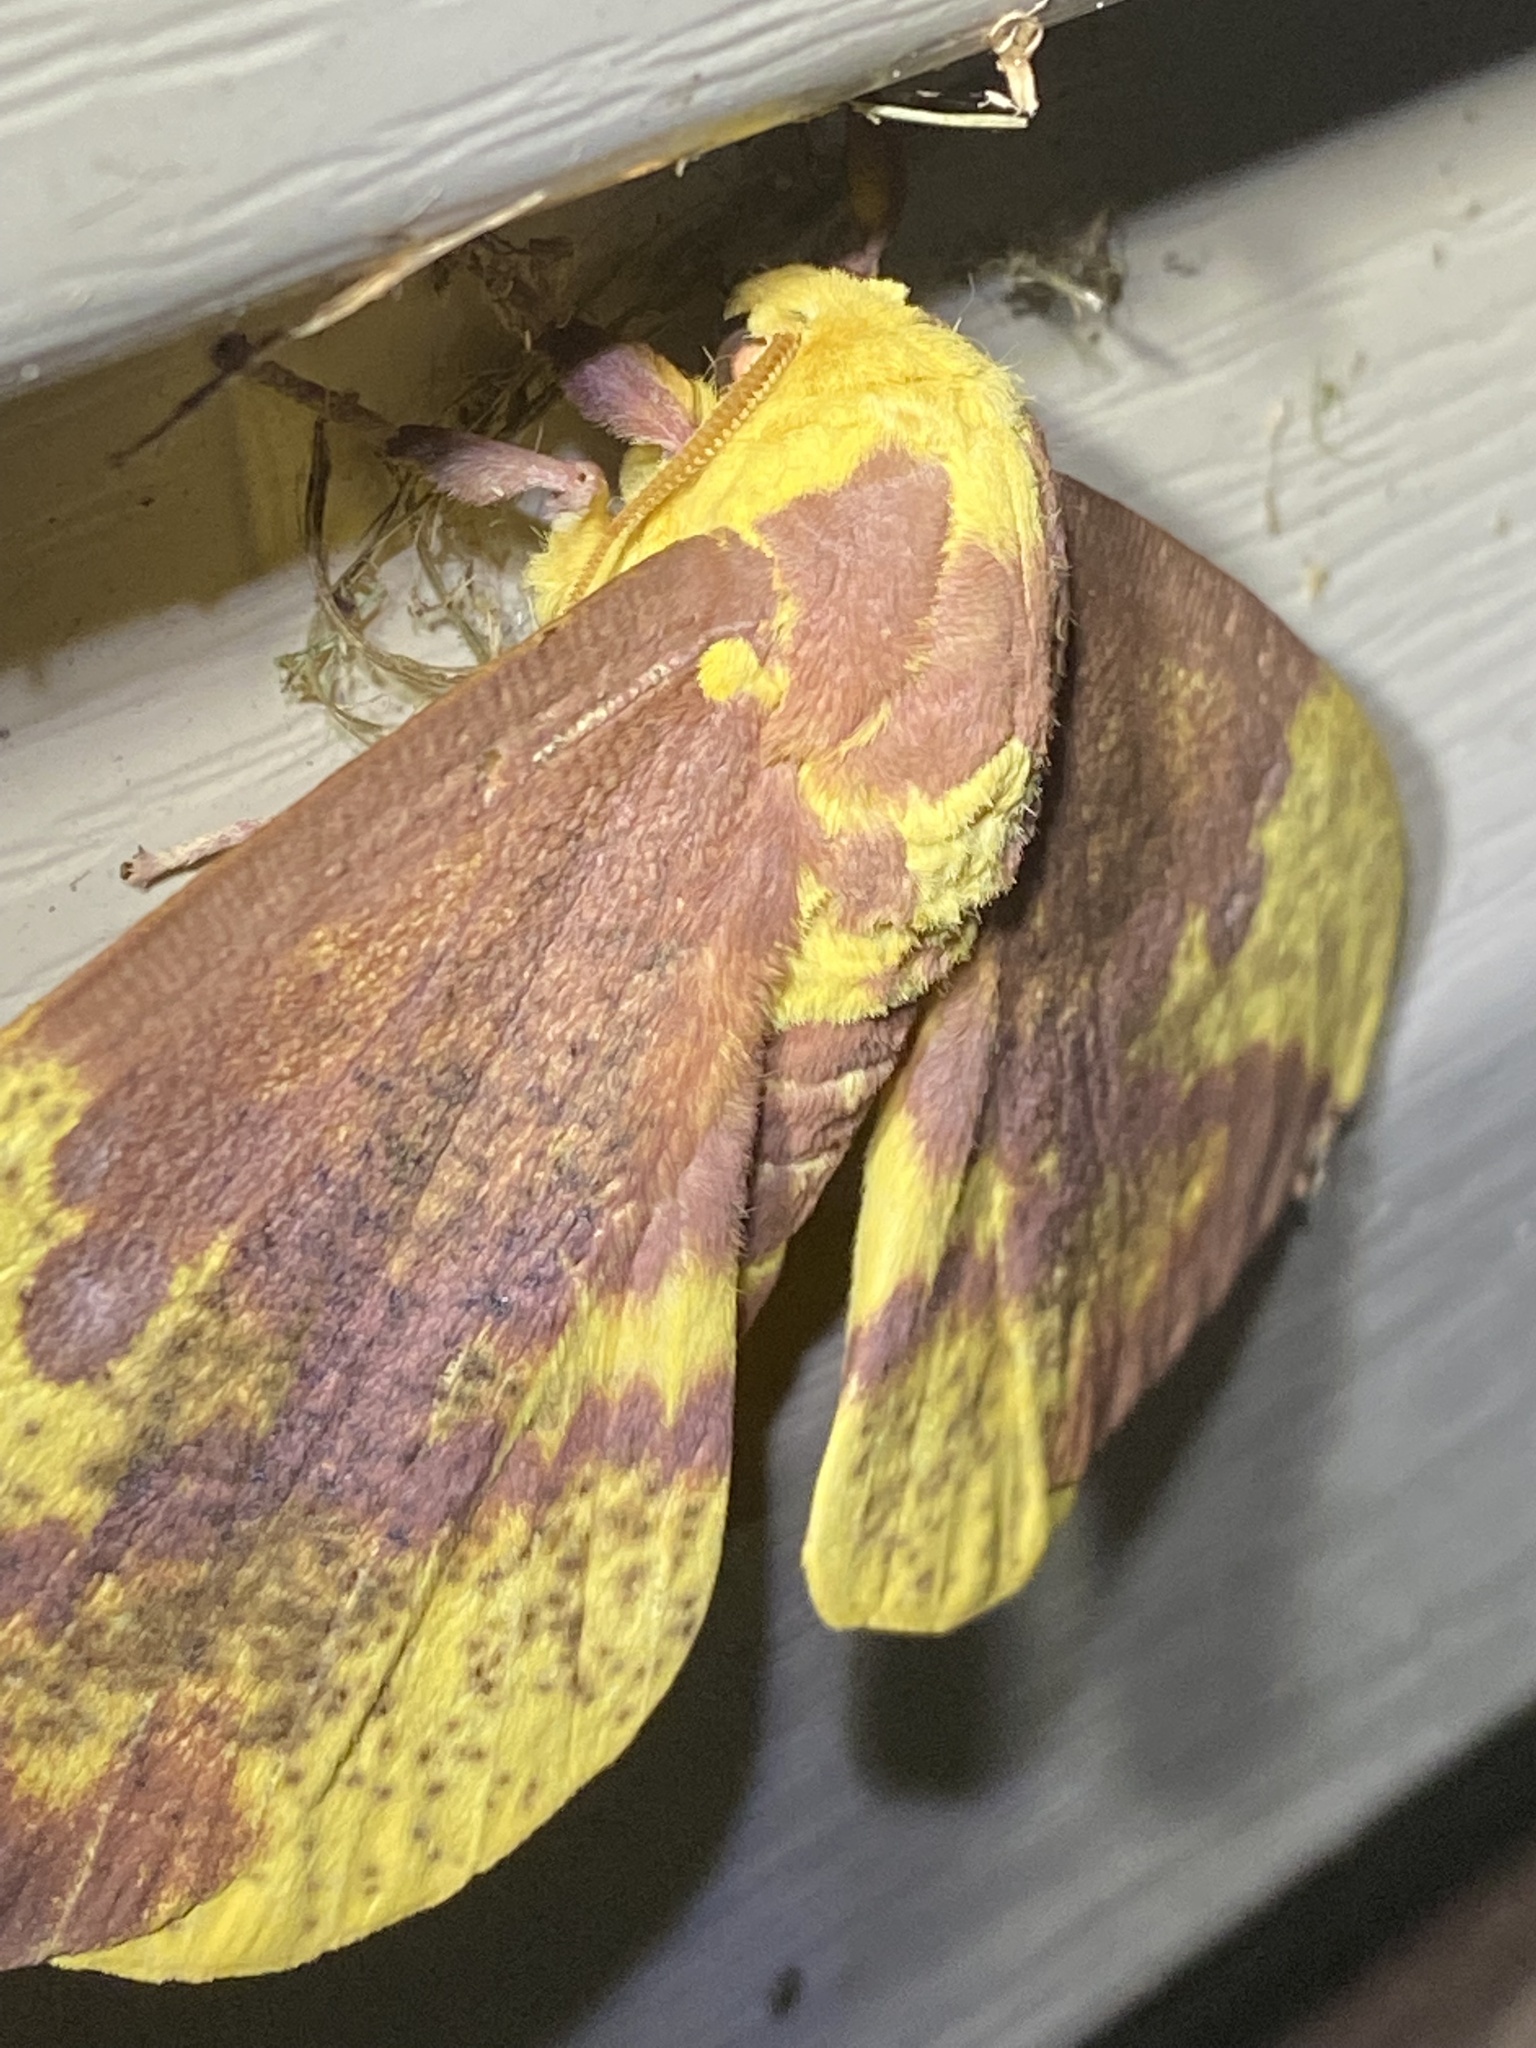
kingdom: Animalia
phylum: Arthropoda
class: Insecta
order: Lepidoptera
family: Saturniidae
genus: Eacles
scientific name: Eacles imperialis
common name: Imperial moth
